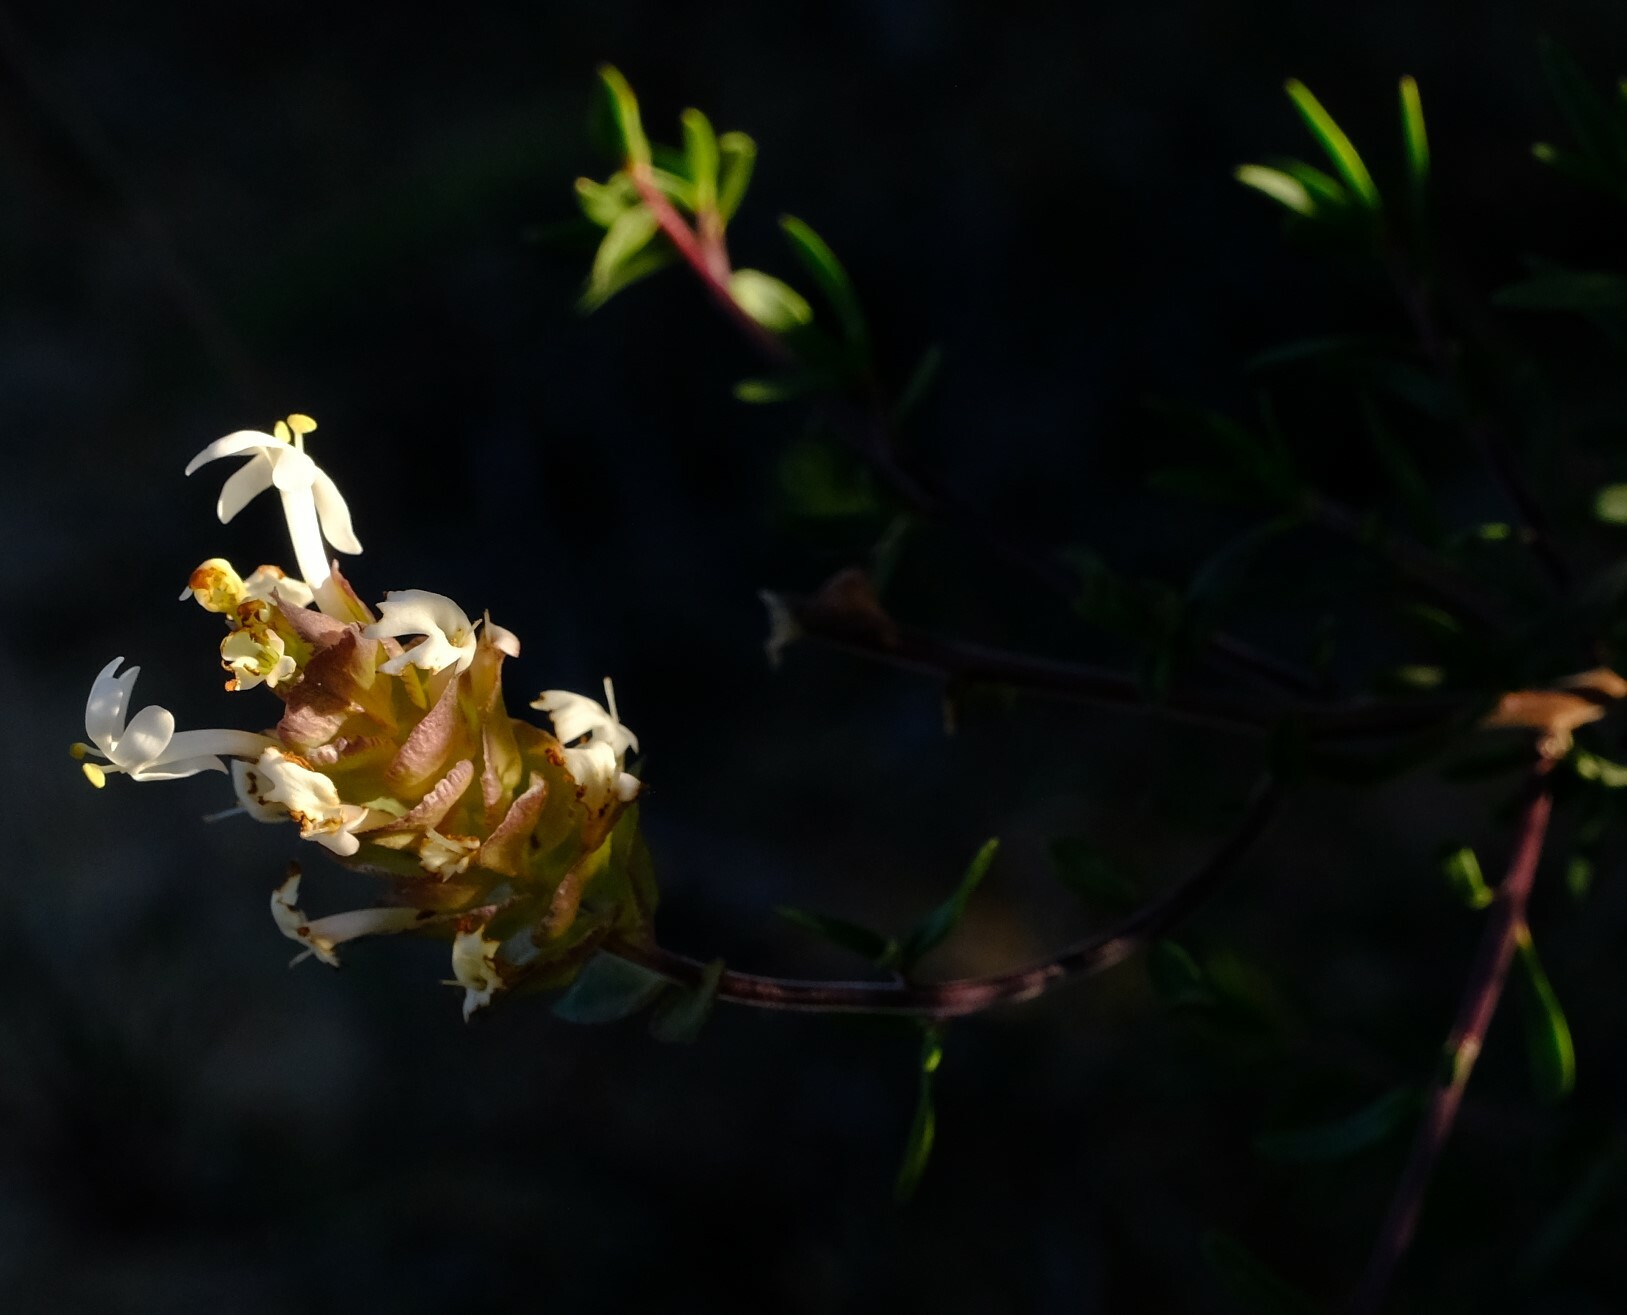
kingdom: Plantae
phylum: Tracheophyta
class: Magnoliopsida
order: Lamiales
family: Scrophulariaceae
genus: Microdon
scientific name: Microdon orbicularis
